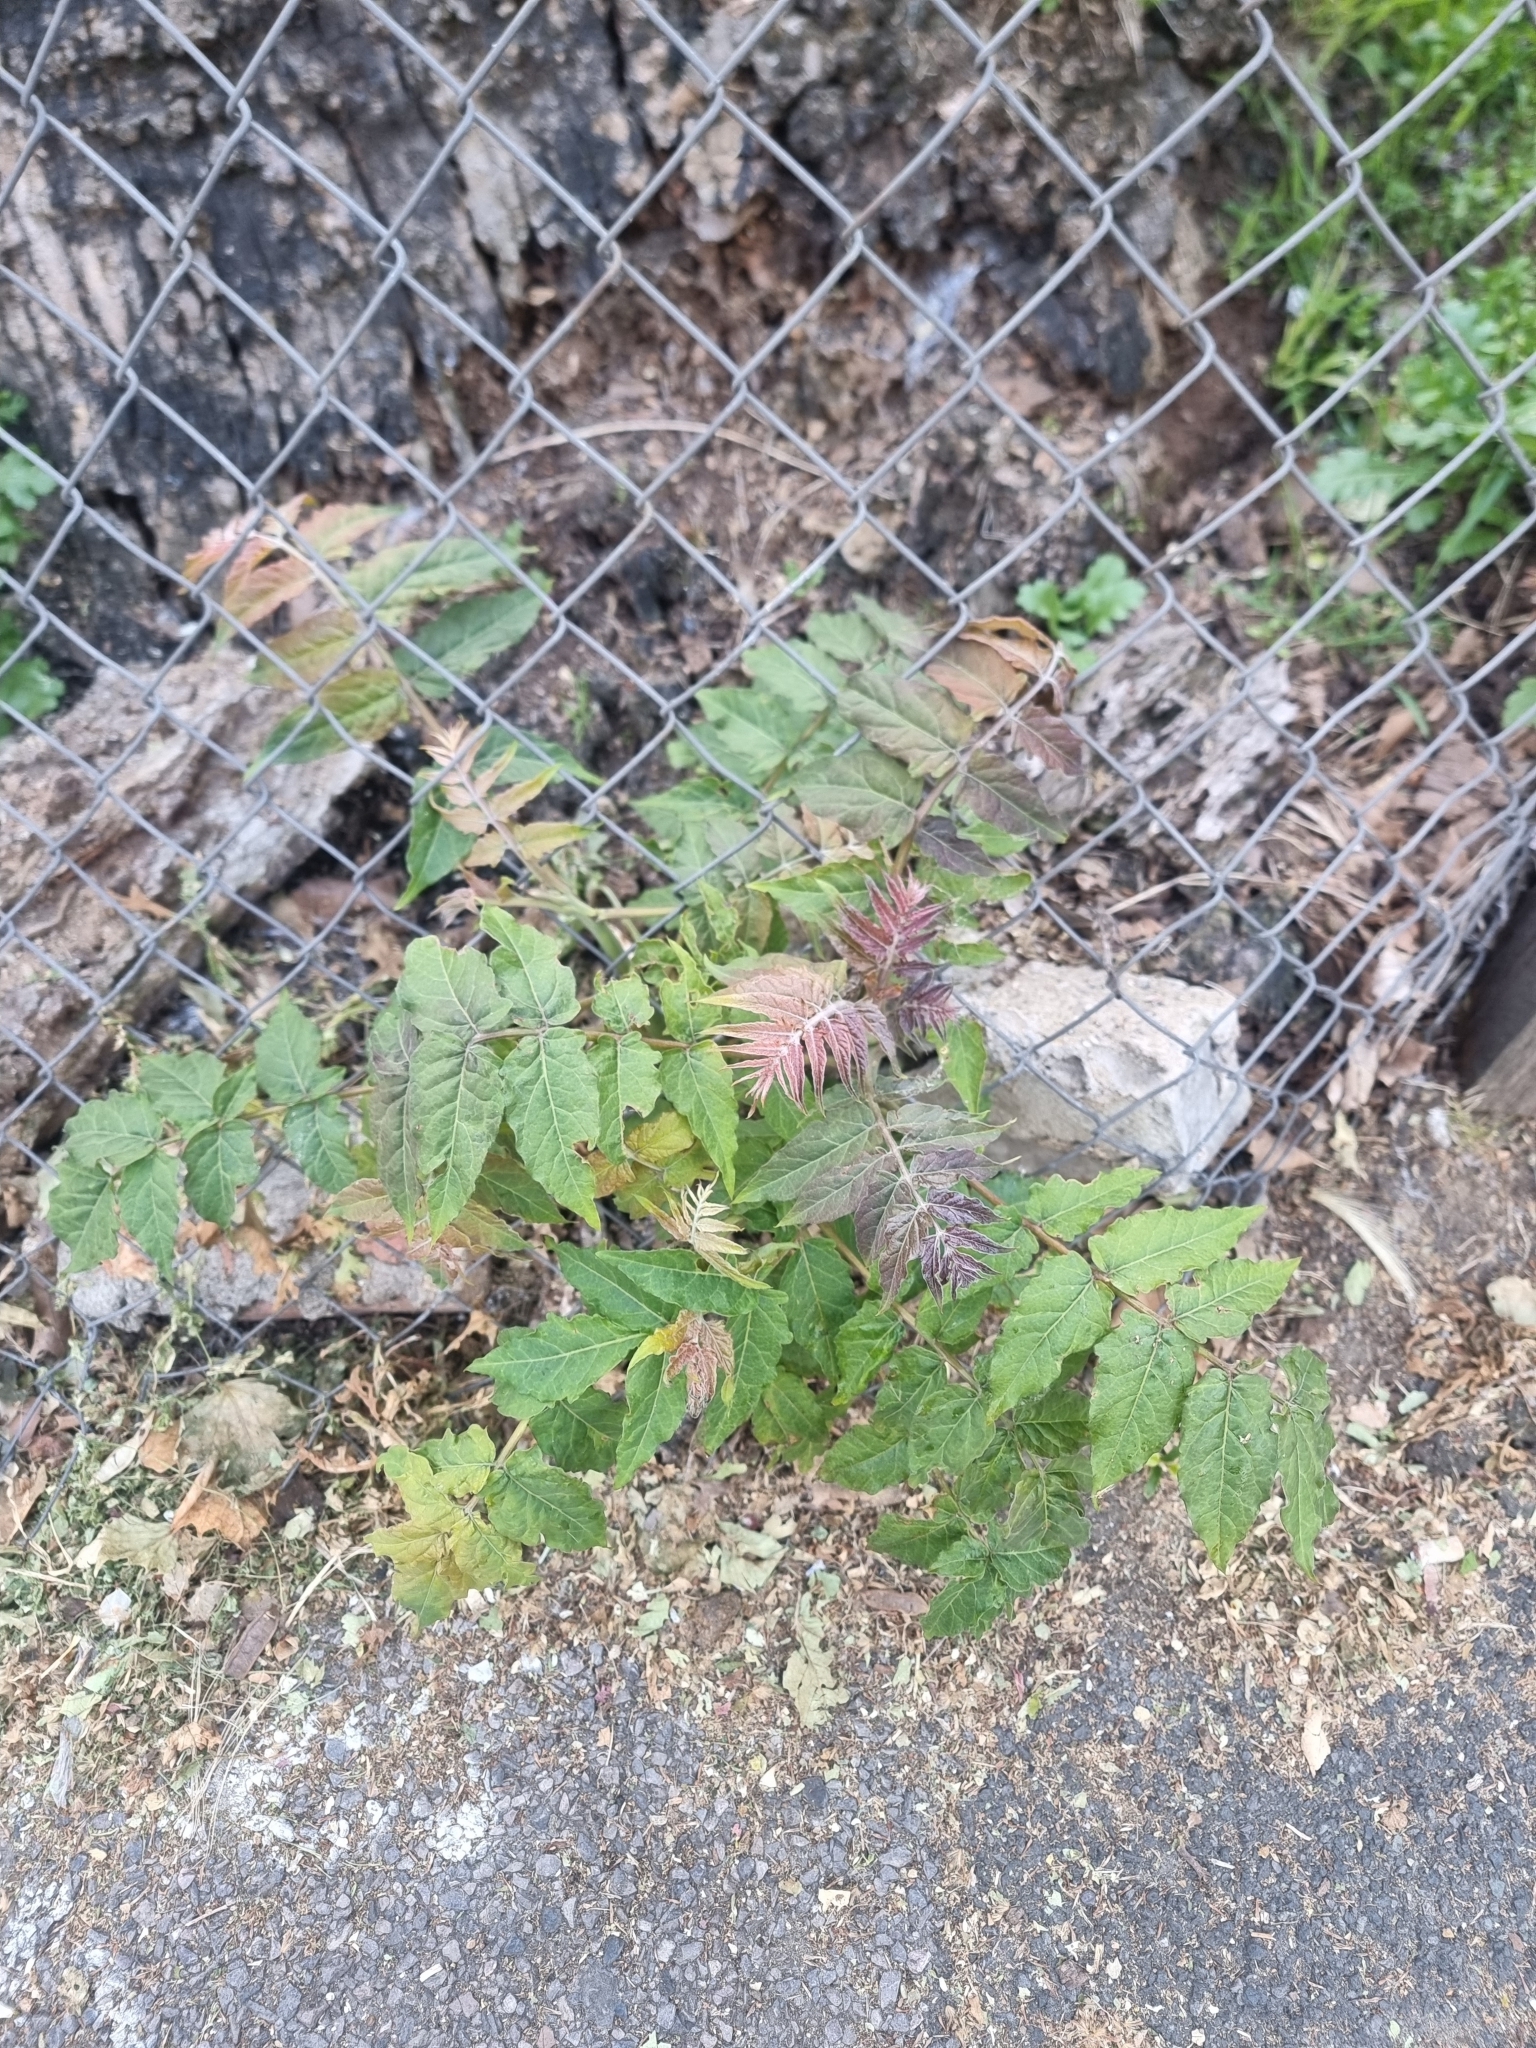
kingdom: Plantae
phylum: Tracheophyta
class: Magnoliopsida
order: Sapindales
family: Simaroubaceae
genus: Ailanthus
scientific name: Ailanthus altissima
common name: Tree-of-heaven
